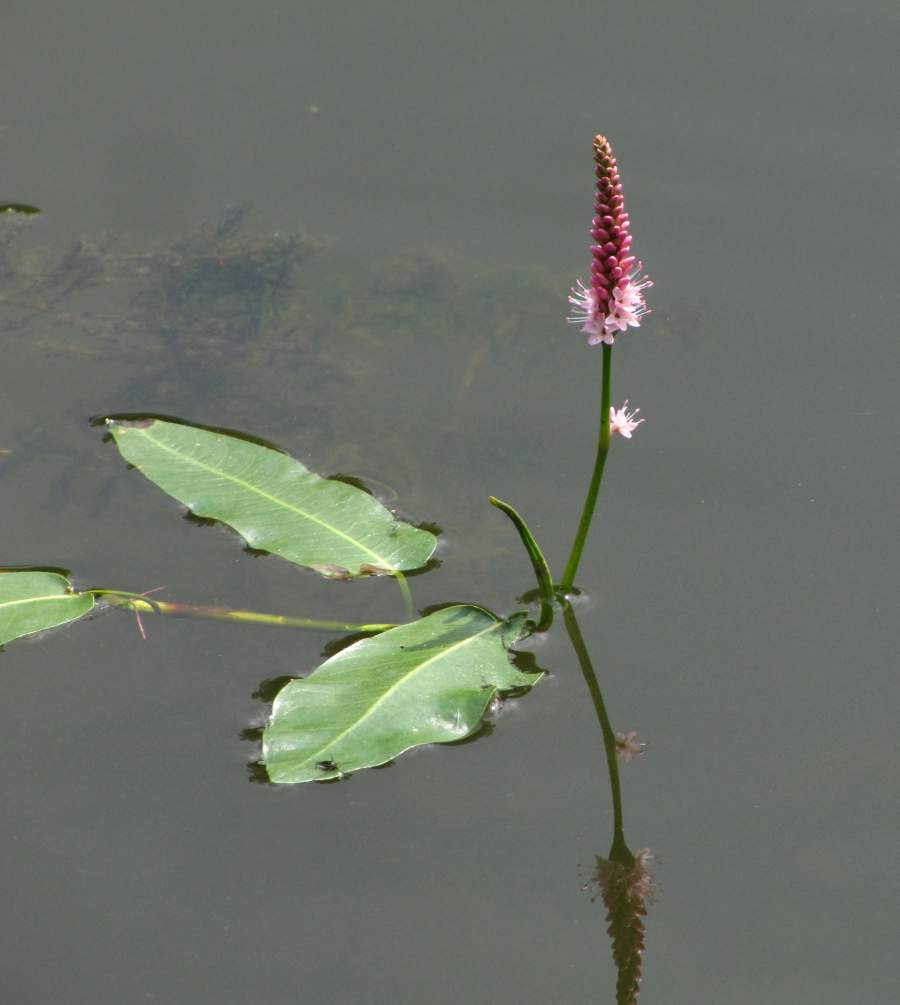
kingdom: Plantae
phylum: Tracheophyta
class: Magnoliopsida
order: Caryophyllales
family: Polygonaceae
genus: Persicaria
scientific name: Persicaria amphibia
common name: Amphibious bistort
